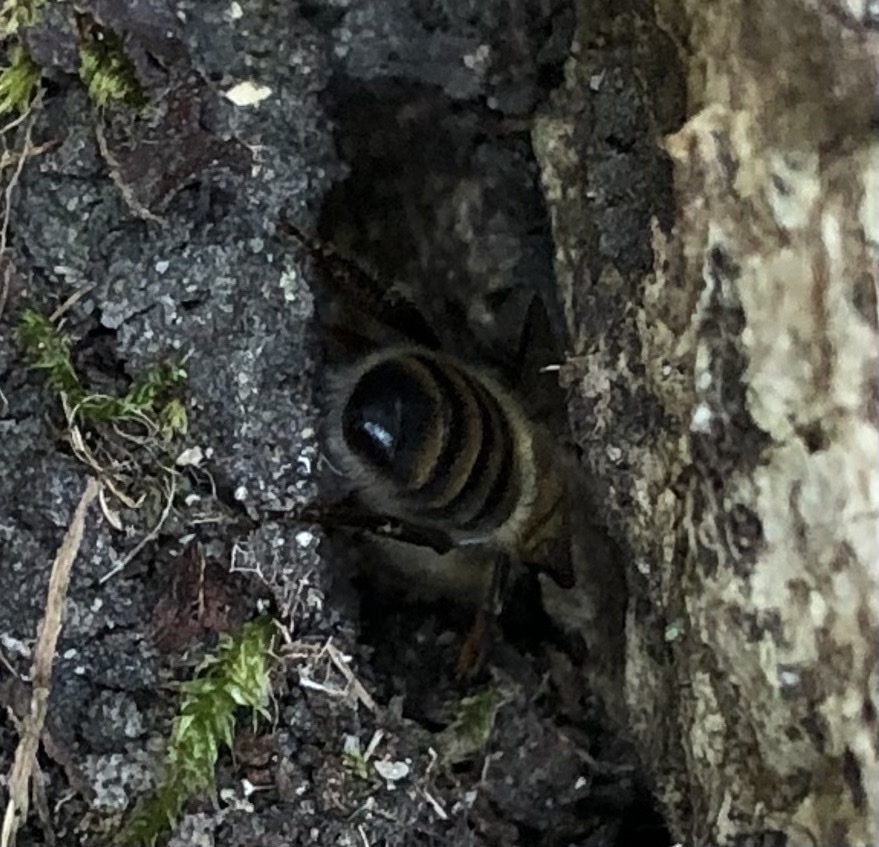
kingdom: Animalia
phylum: Arthropoda
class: Insecta
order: Hymenoptera
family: Apidae
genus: Apis
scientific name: Apis mellifera
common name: Honey bee
